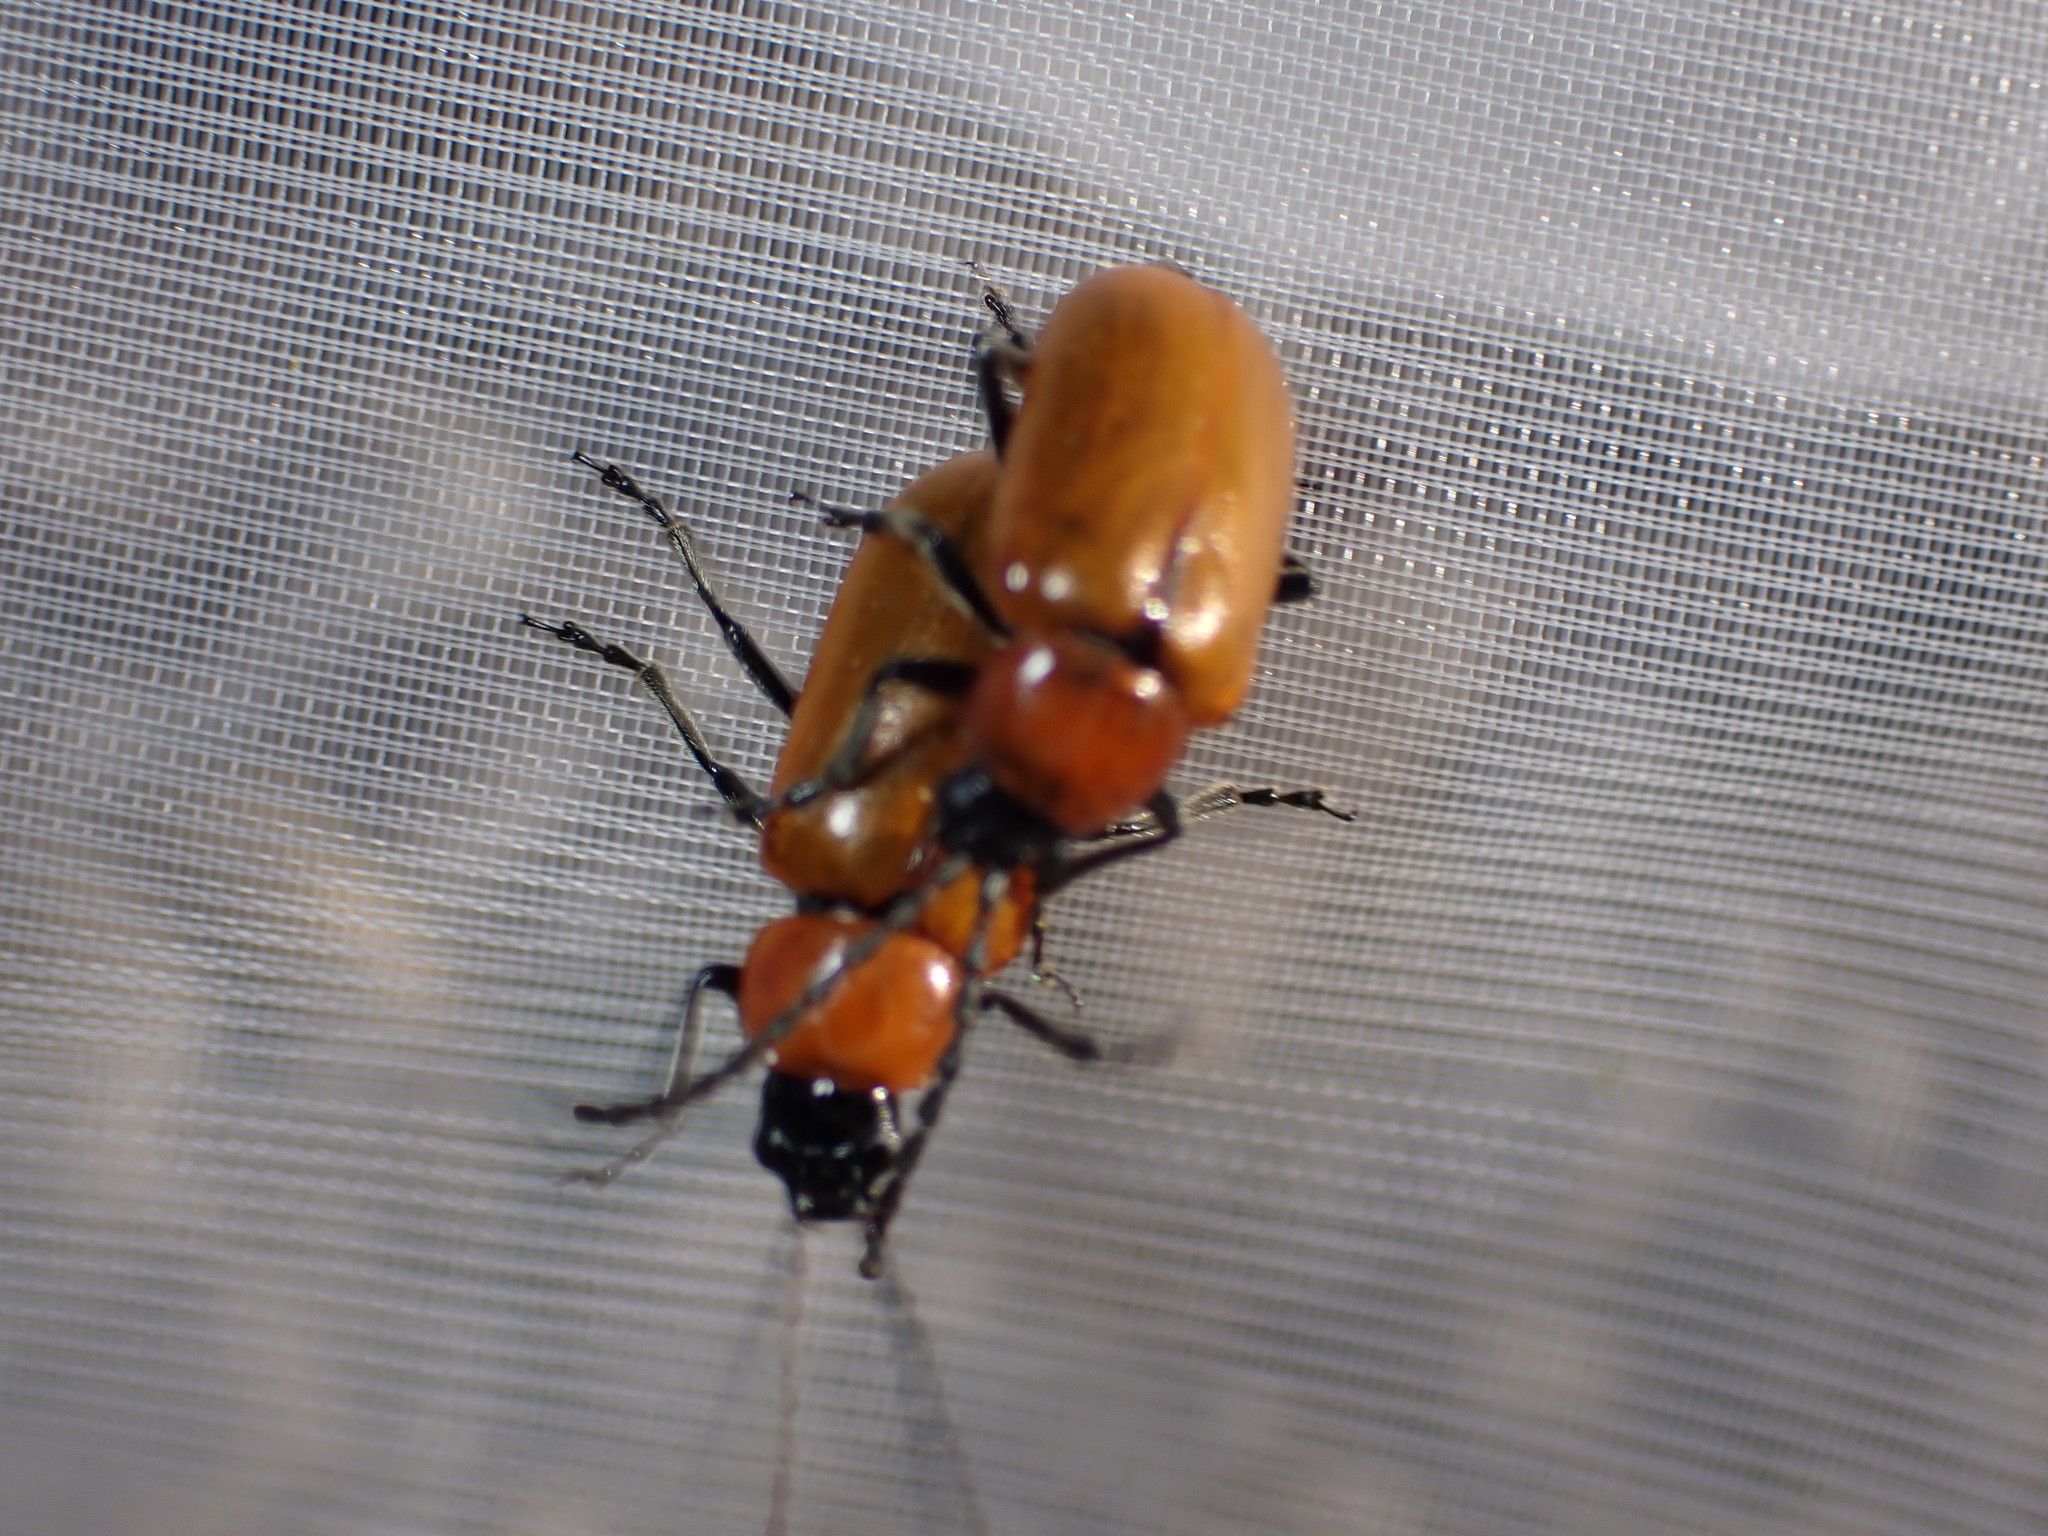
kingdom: Animalia
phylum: Arthropoda
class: Insecta
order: Coleoptera
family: Chrysomelidae
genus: Exosoma
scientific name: Exosoma lusitanicum
